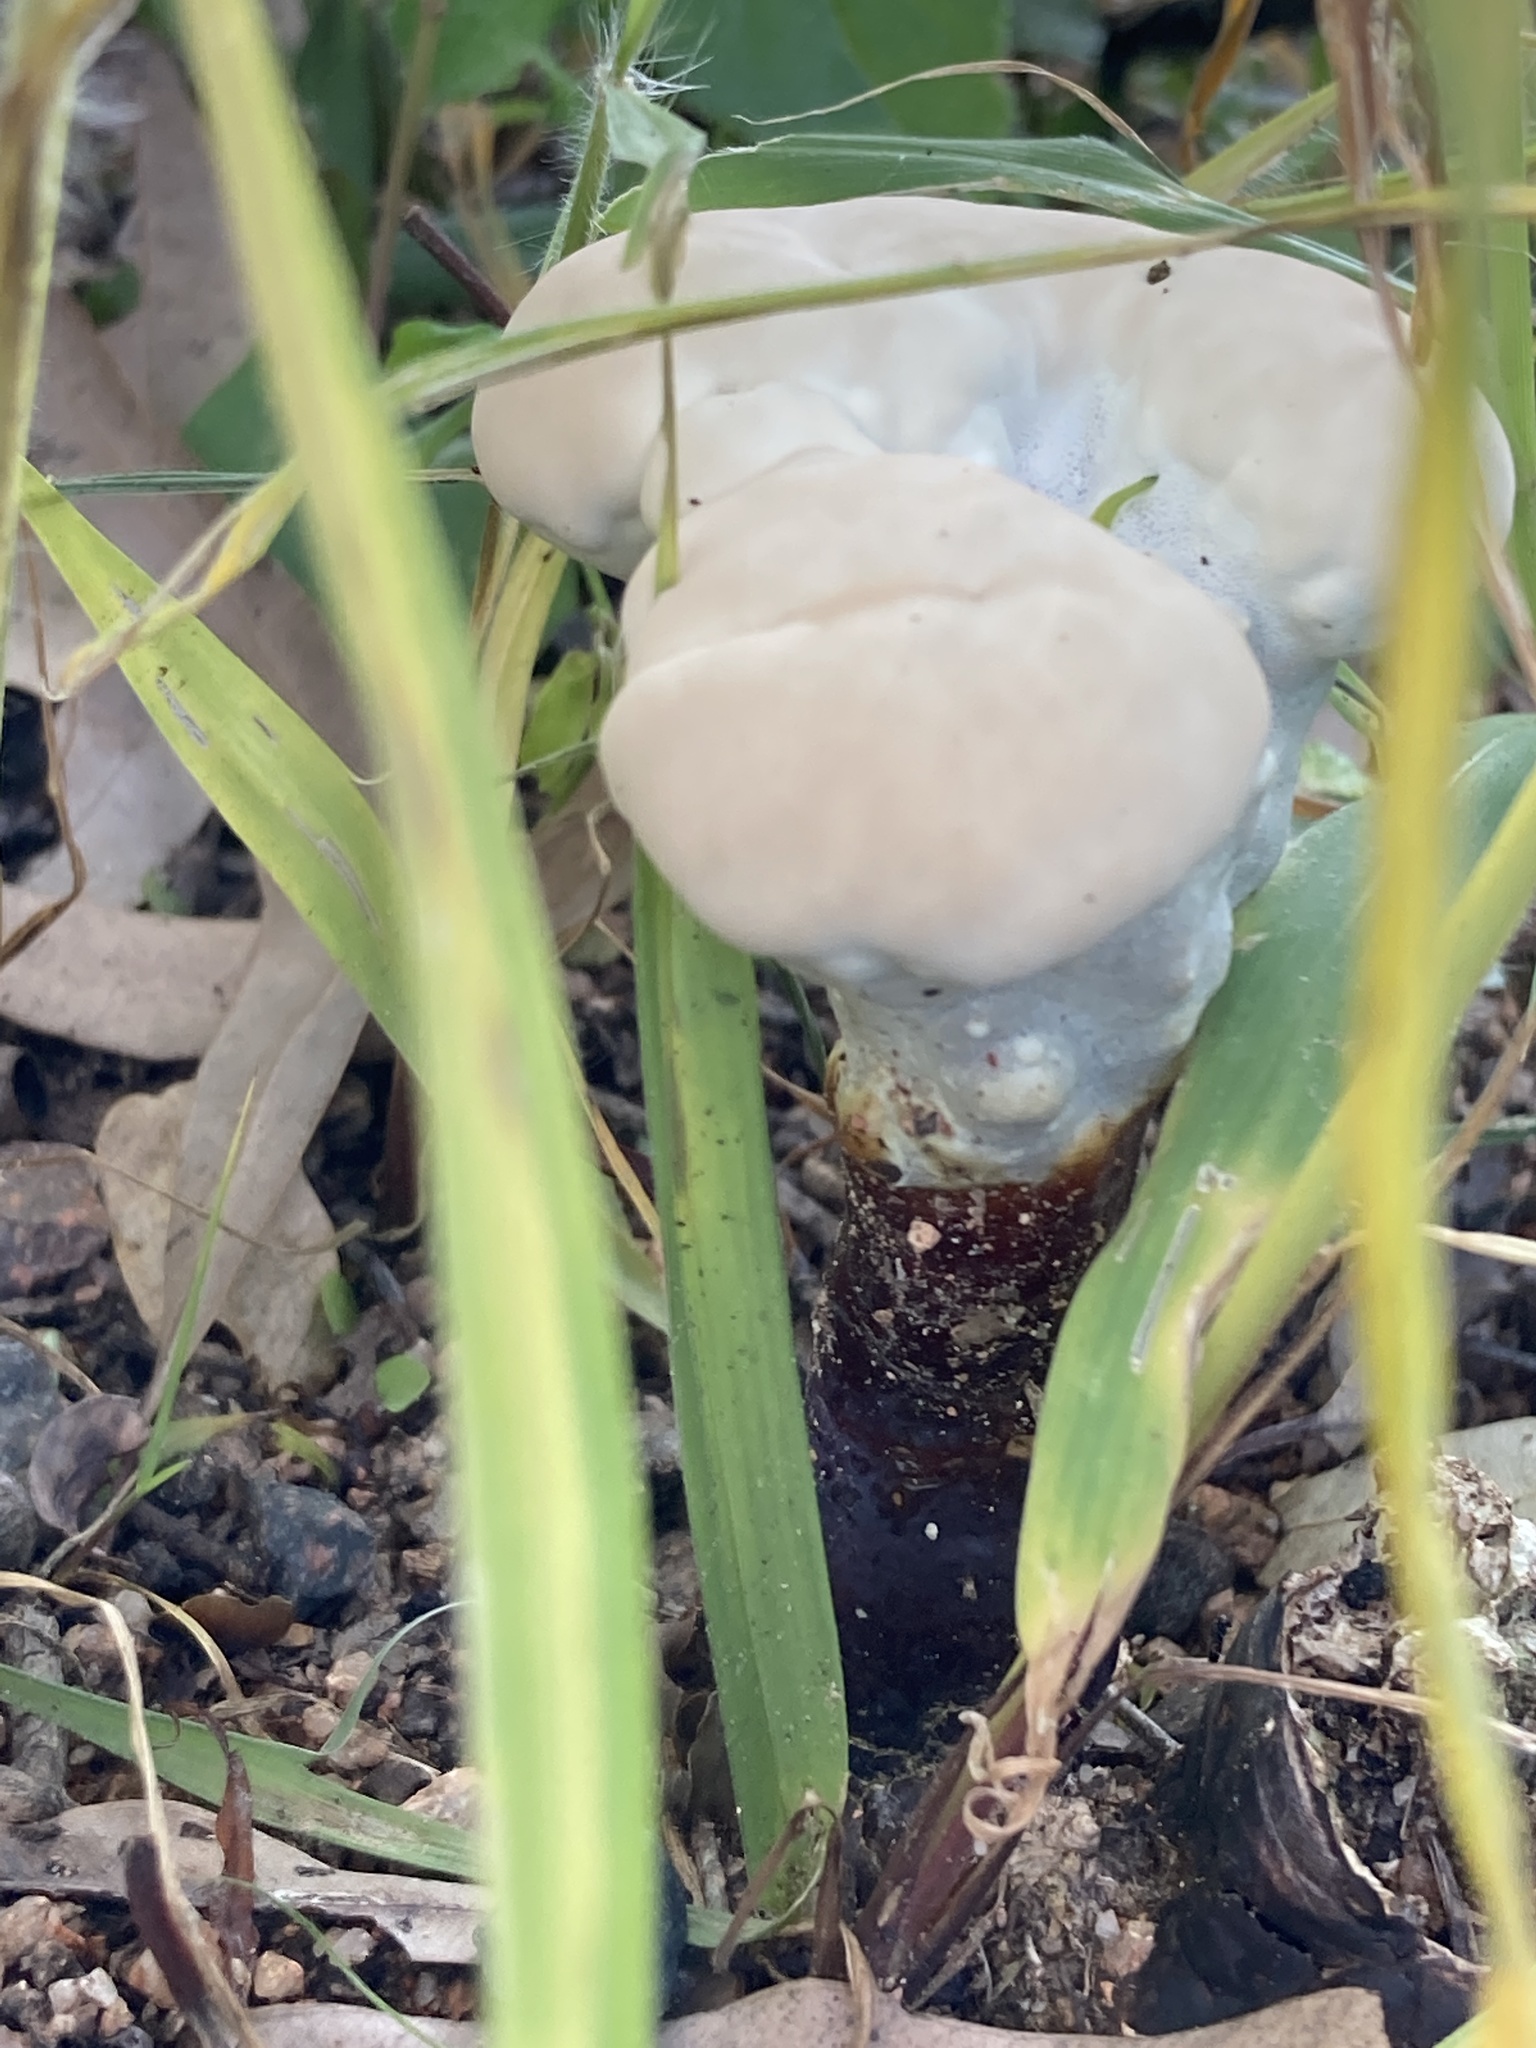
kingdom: Fungi
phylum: Basidiomycota
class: Agaricomycetes
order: Polyporales
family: Ganodermataceae
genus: Sanguinoderma
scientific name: Sanguinoderma rude
